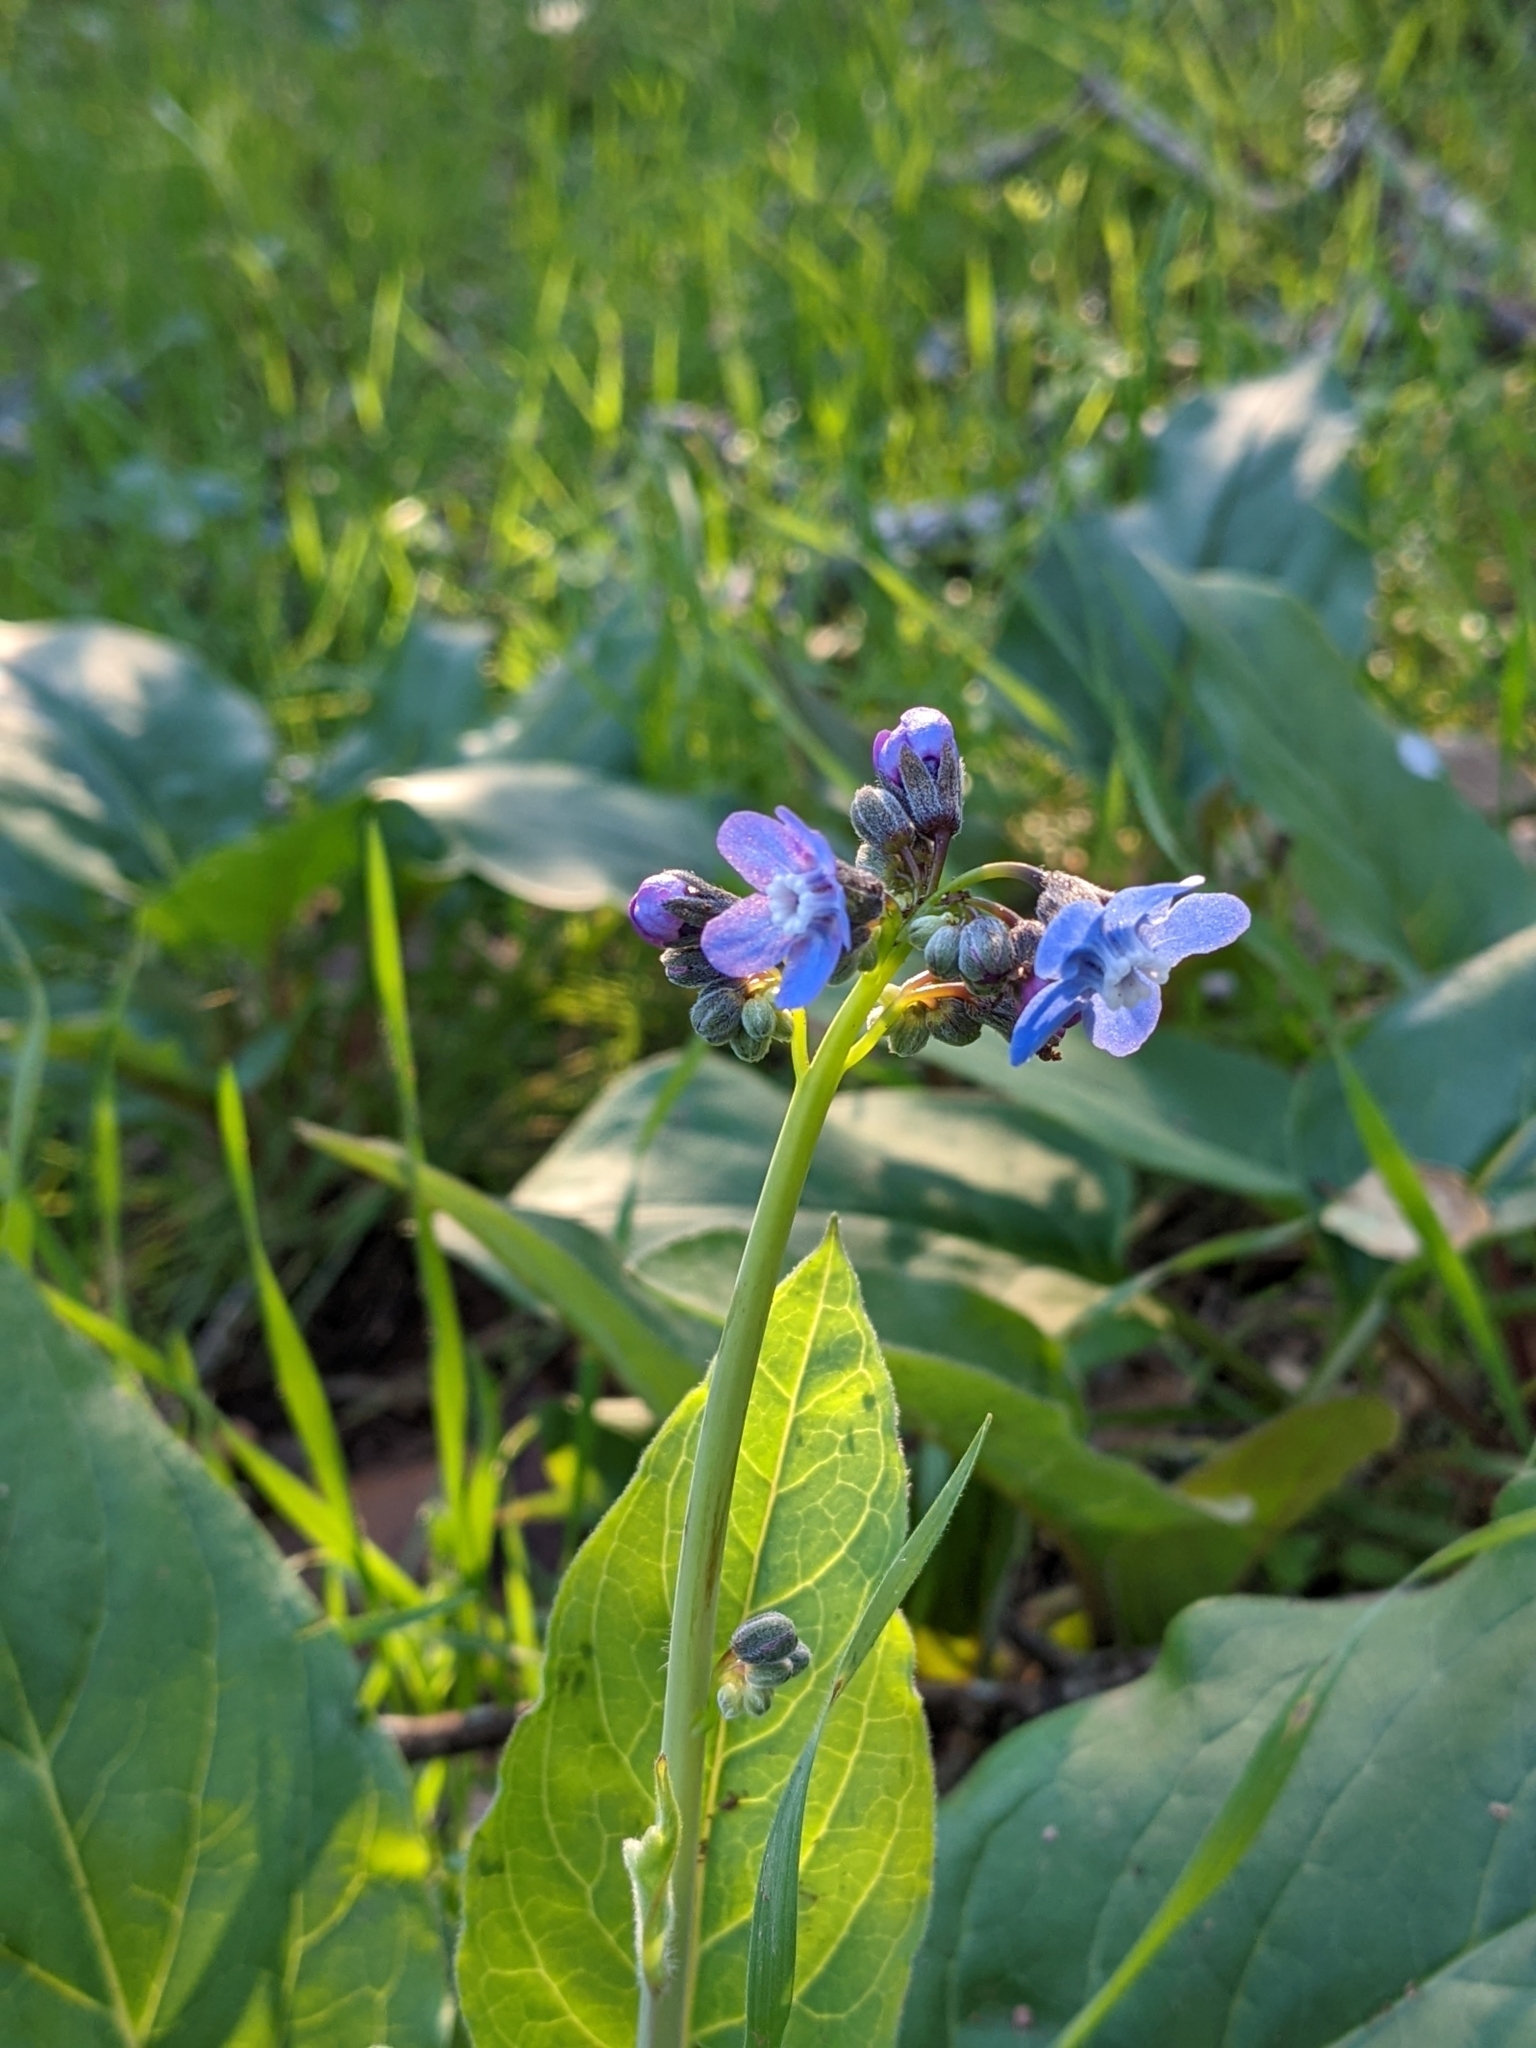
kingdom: Plantae
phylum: Tracheophyta
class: Magnoliopsida
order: Boraginales
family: Boraginaceae
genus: Adelinia
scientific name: Adelinia grande
